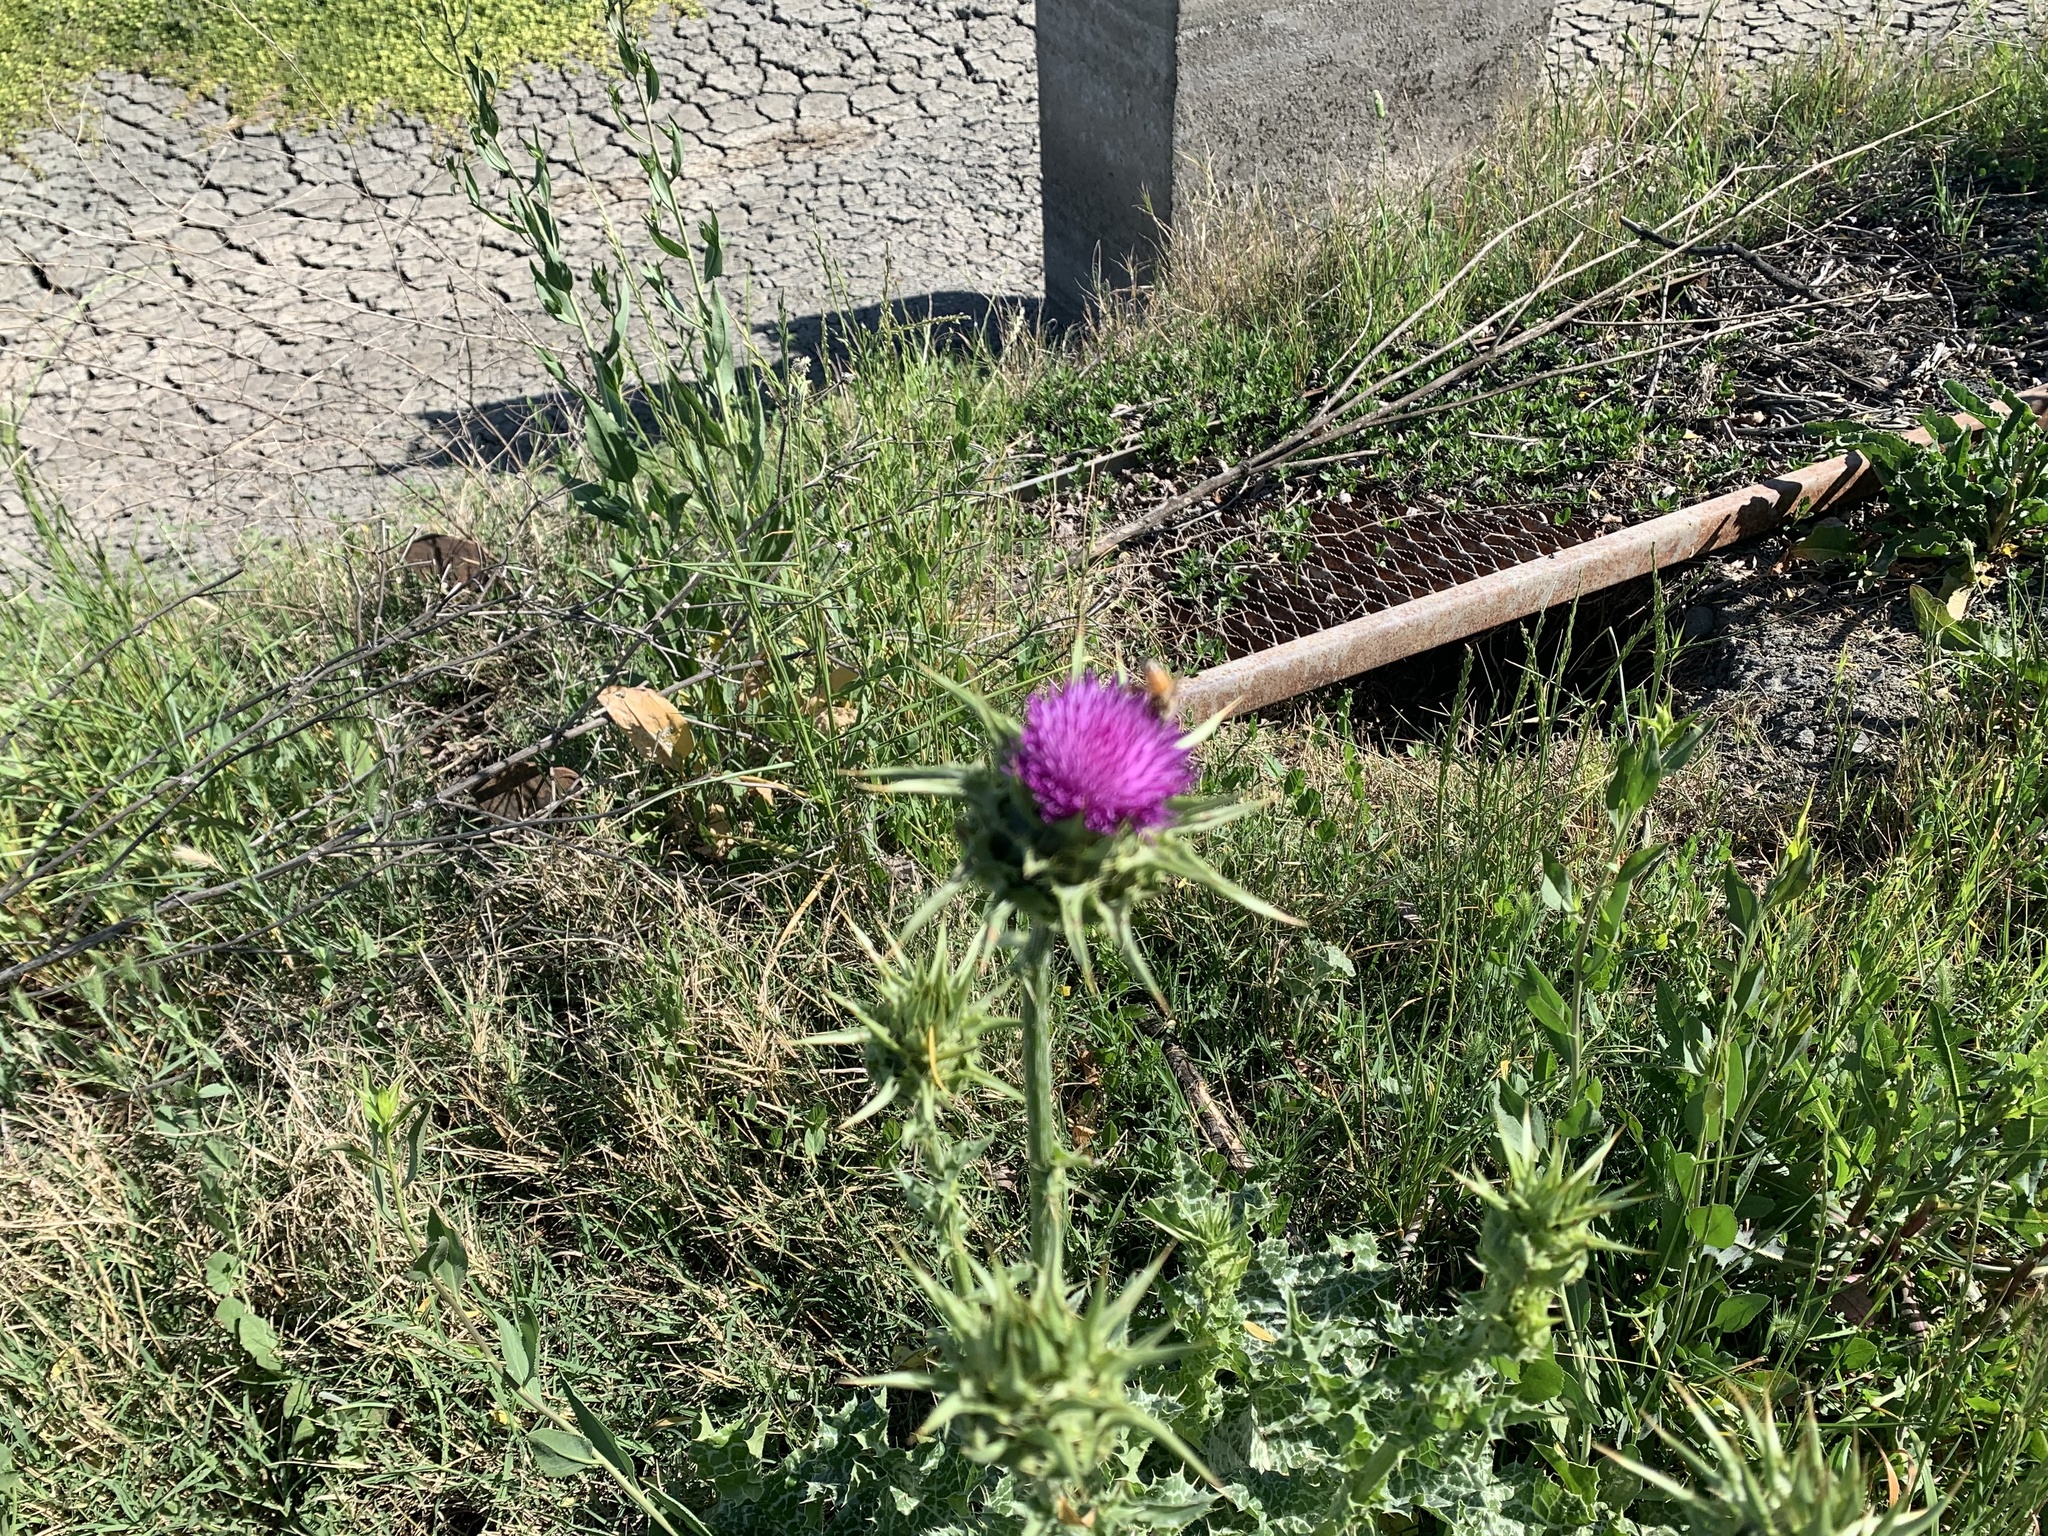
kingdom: Plantae
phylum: Tracheophyta
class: Magnoliopsida
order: Asterales
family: Asteraceae
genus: Silybum
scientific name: Silybum marianum
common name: Milk thistle
